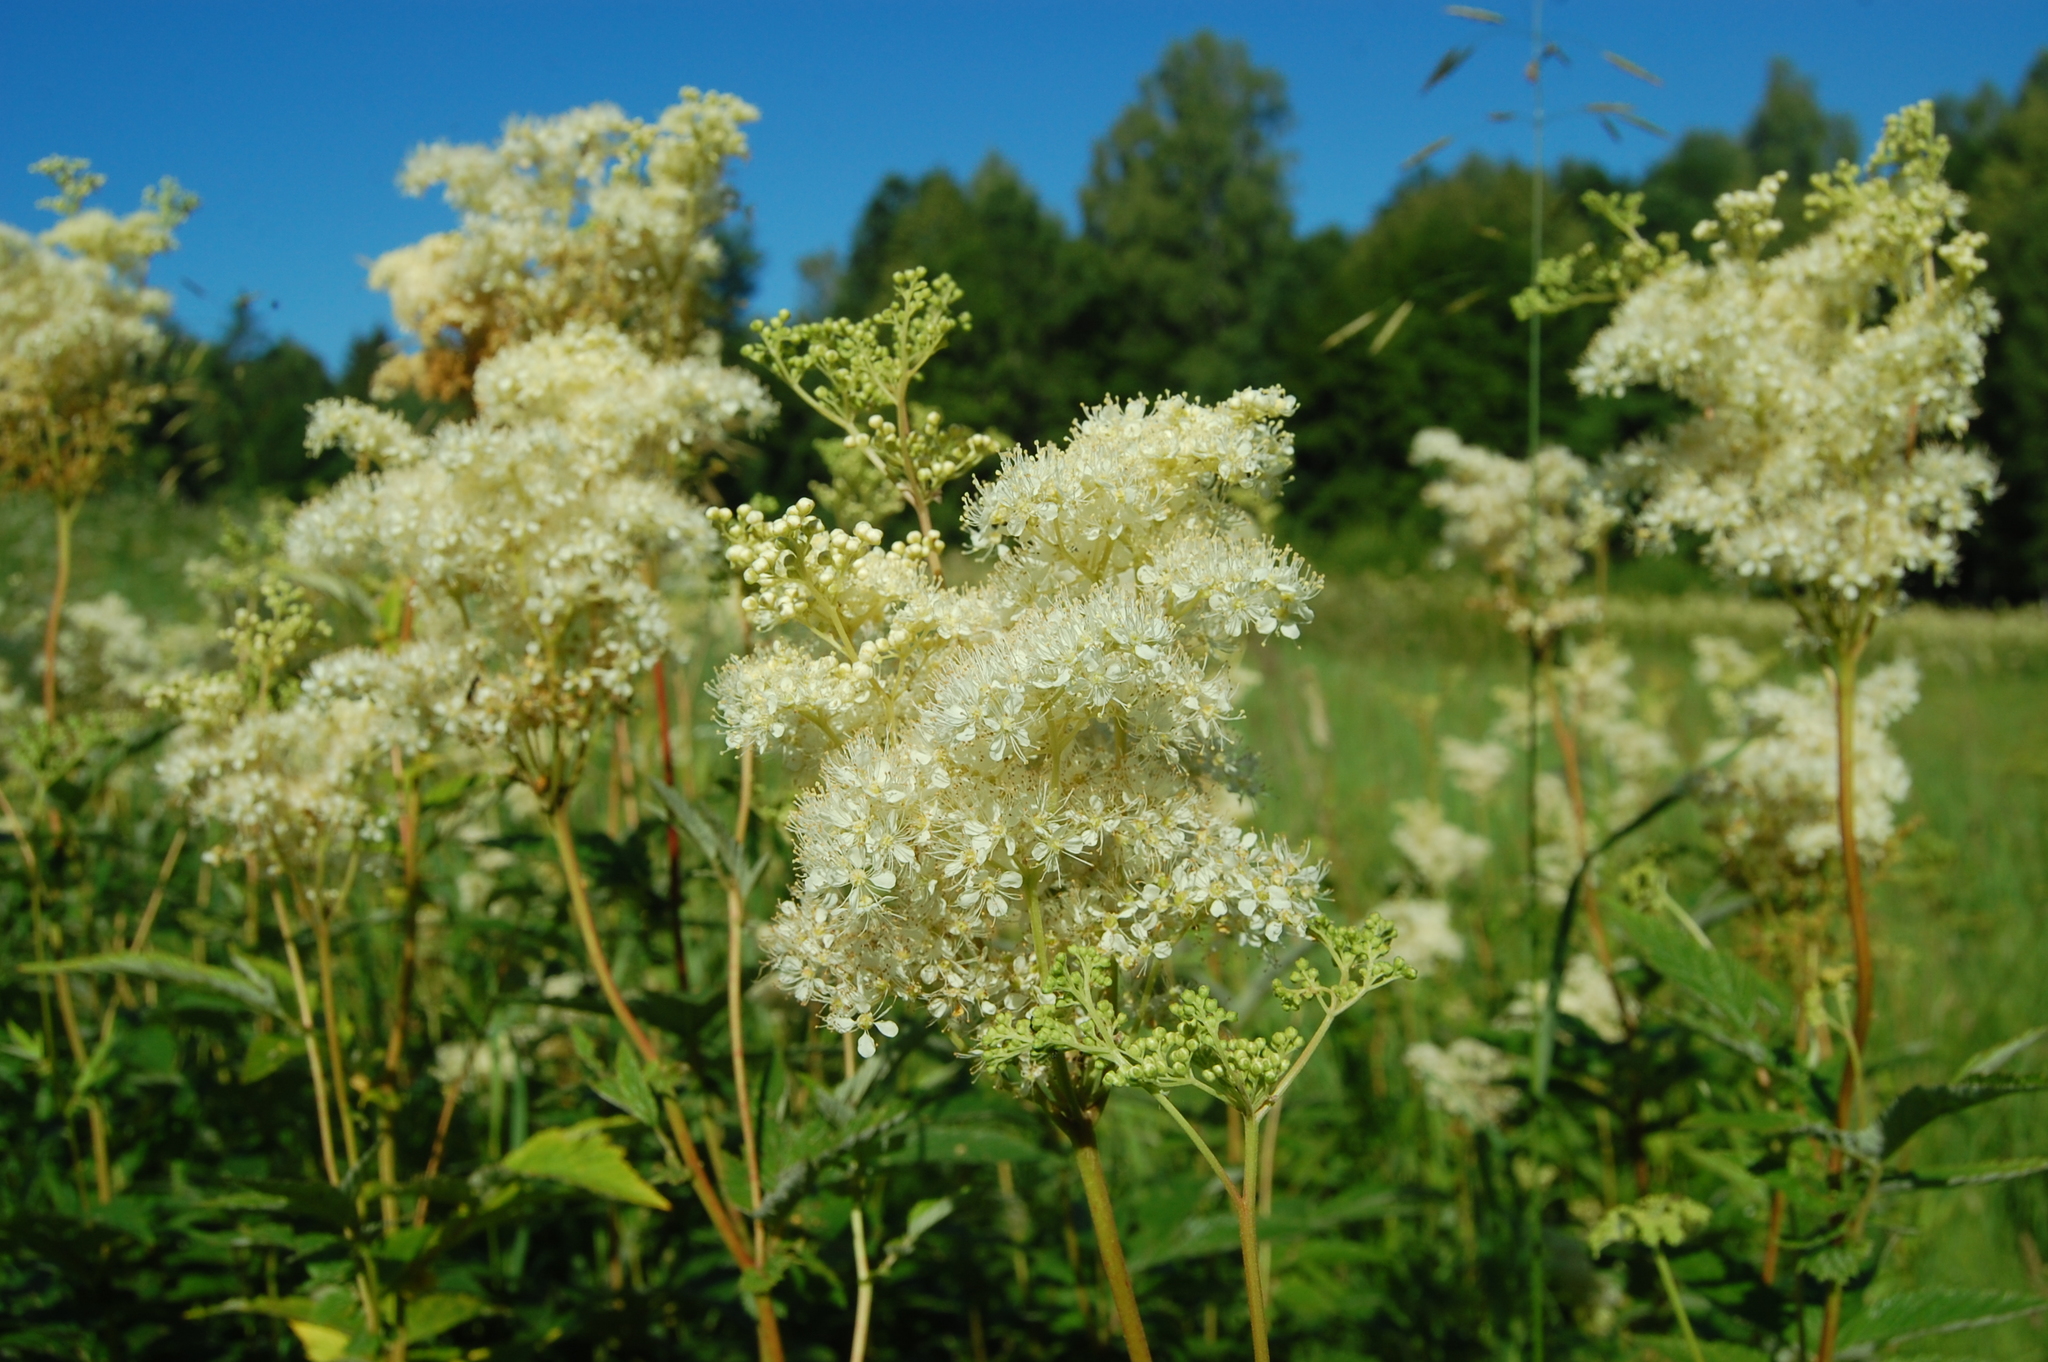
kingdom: Plantae
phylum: Tracheophyta
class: Magnoliopsida
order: Rosales
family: Rosaceae
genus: Filipendula
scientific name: Filipendula ulmaria
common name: Meadowsweet
